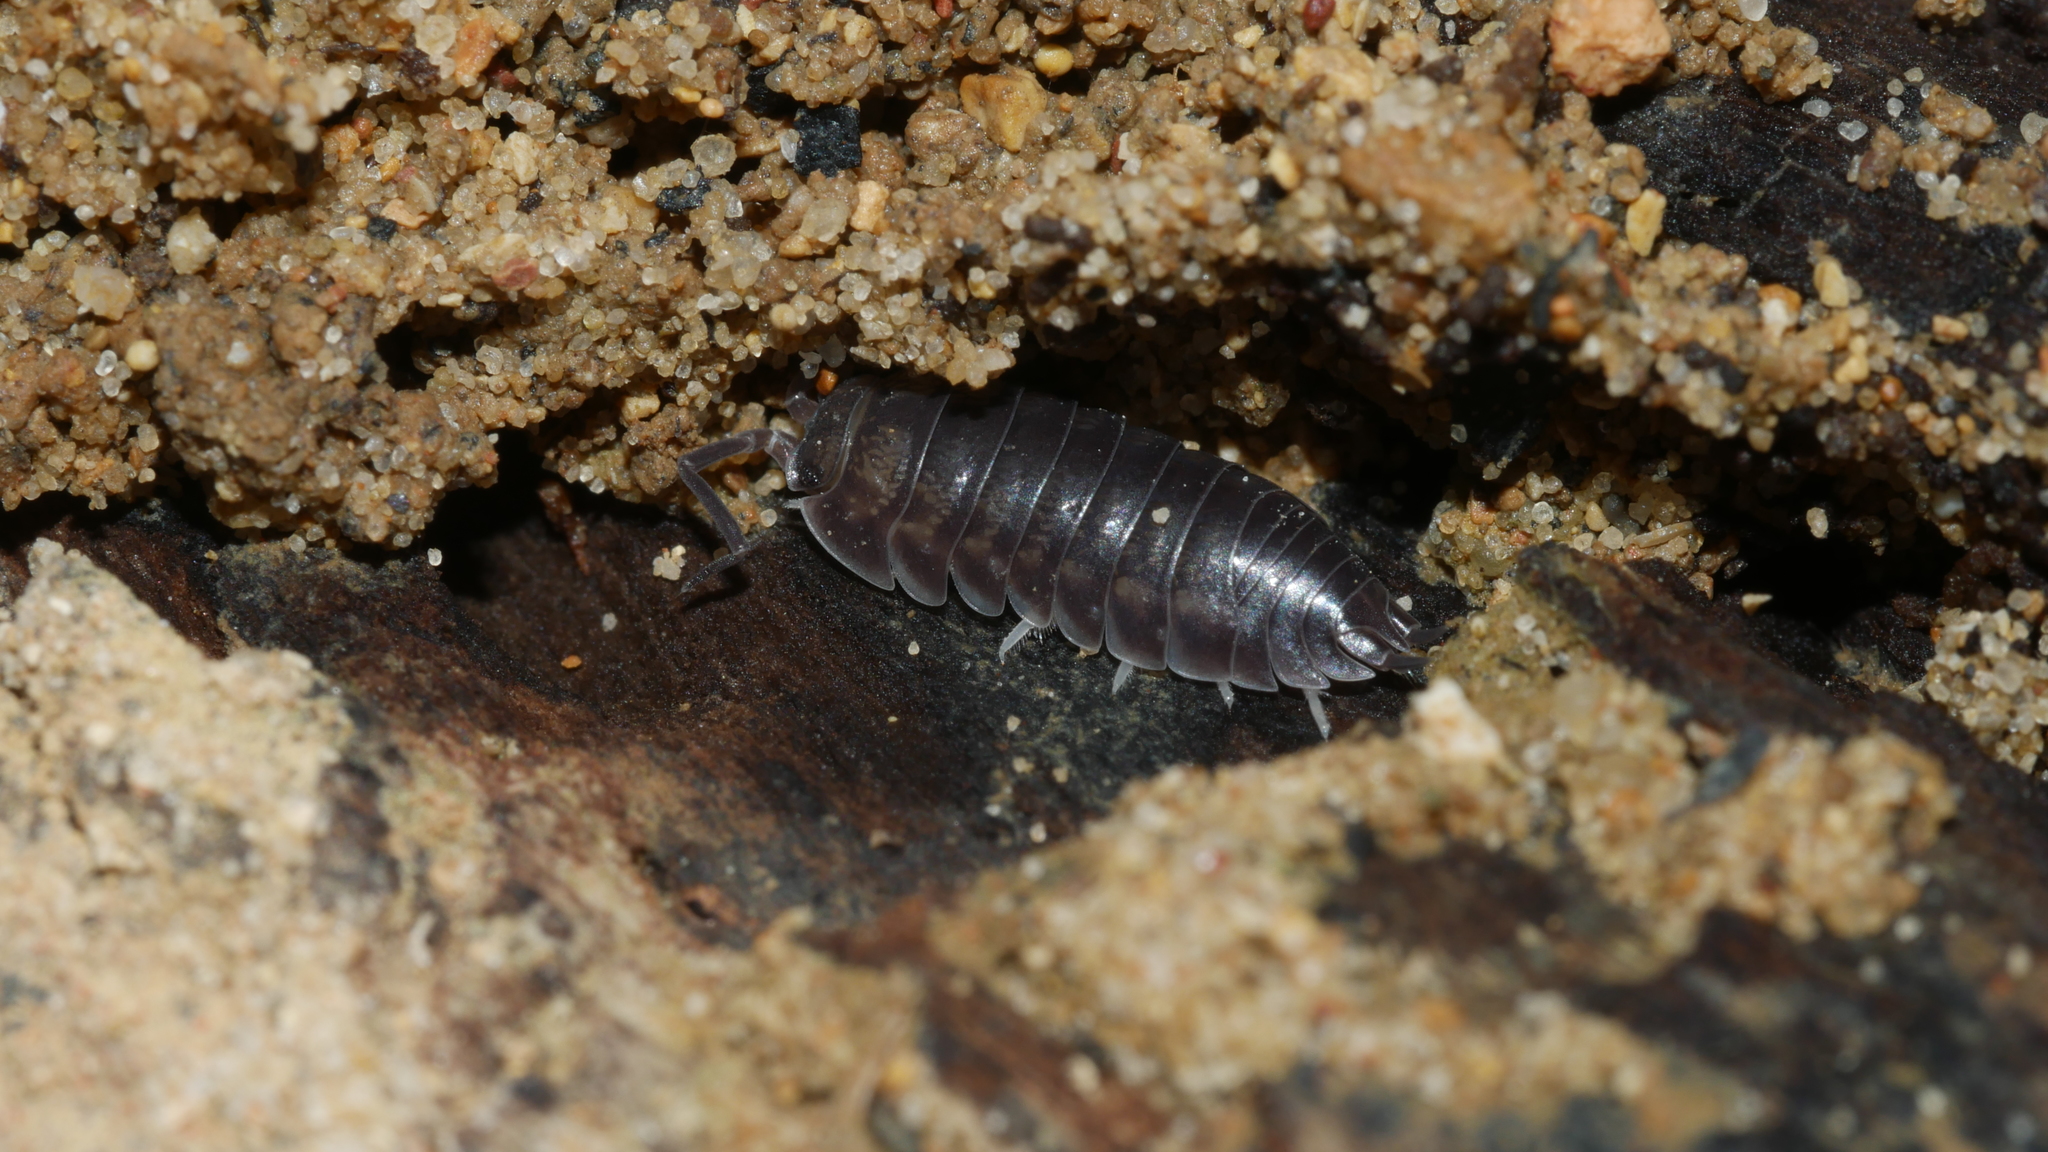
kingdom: Animalia
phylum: Arthropoda
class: Malacostraca
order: Isopoda
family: Cylisticidae
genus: Cylisticus
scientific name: Cylisticus convexus
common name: Curly woodlouse
